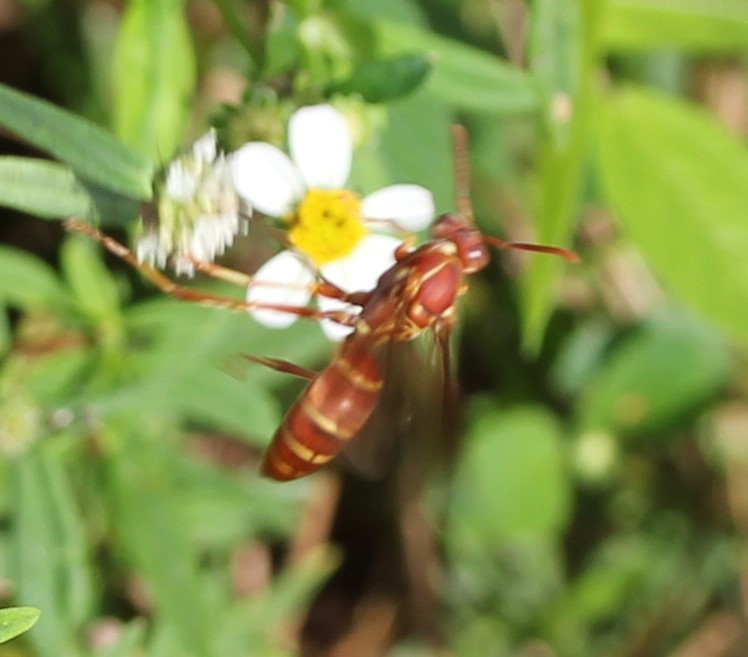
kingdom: Animalia
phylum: Arthropoda
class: Insecta
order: Hymenoptera
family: Eumenidae
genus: Polistes
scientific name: Polistes bellicosus
